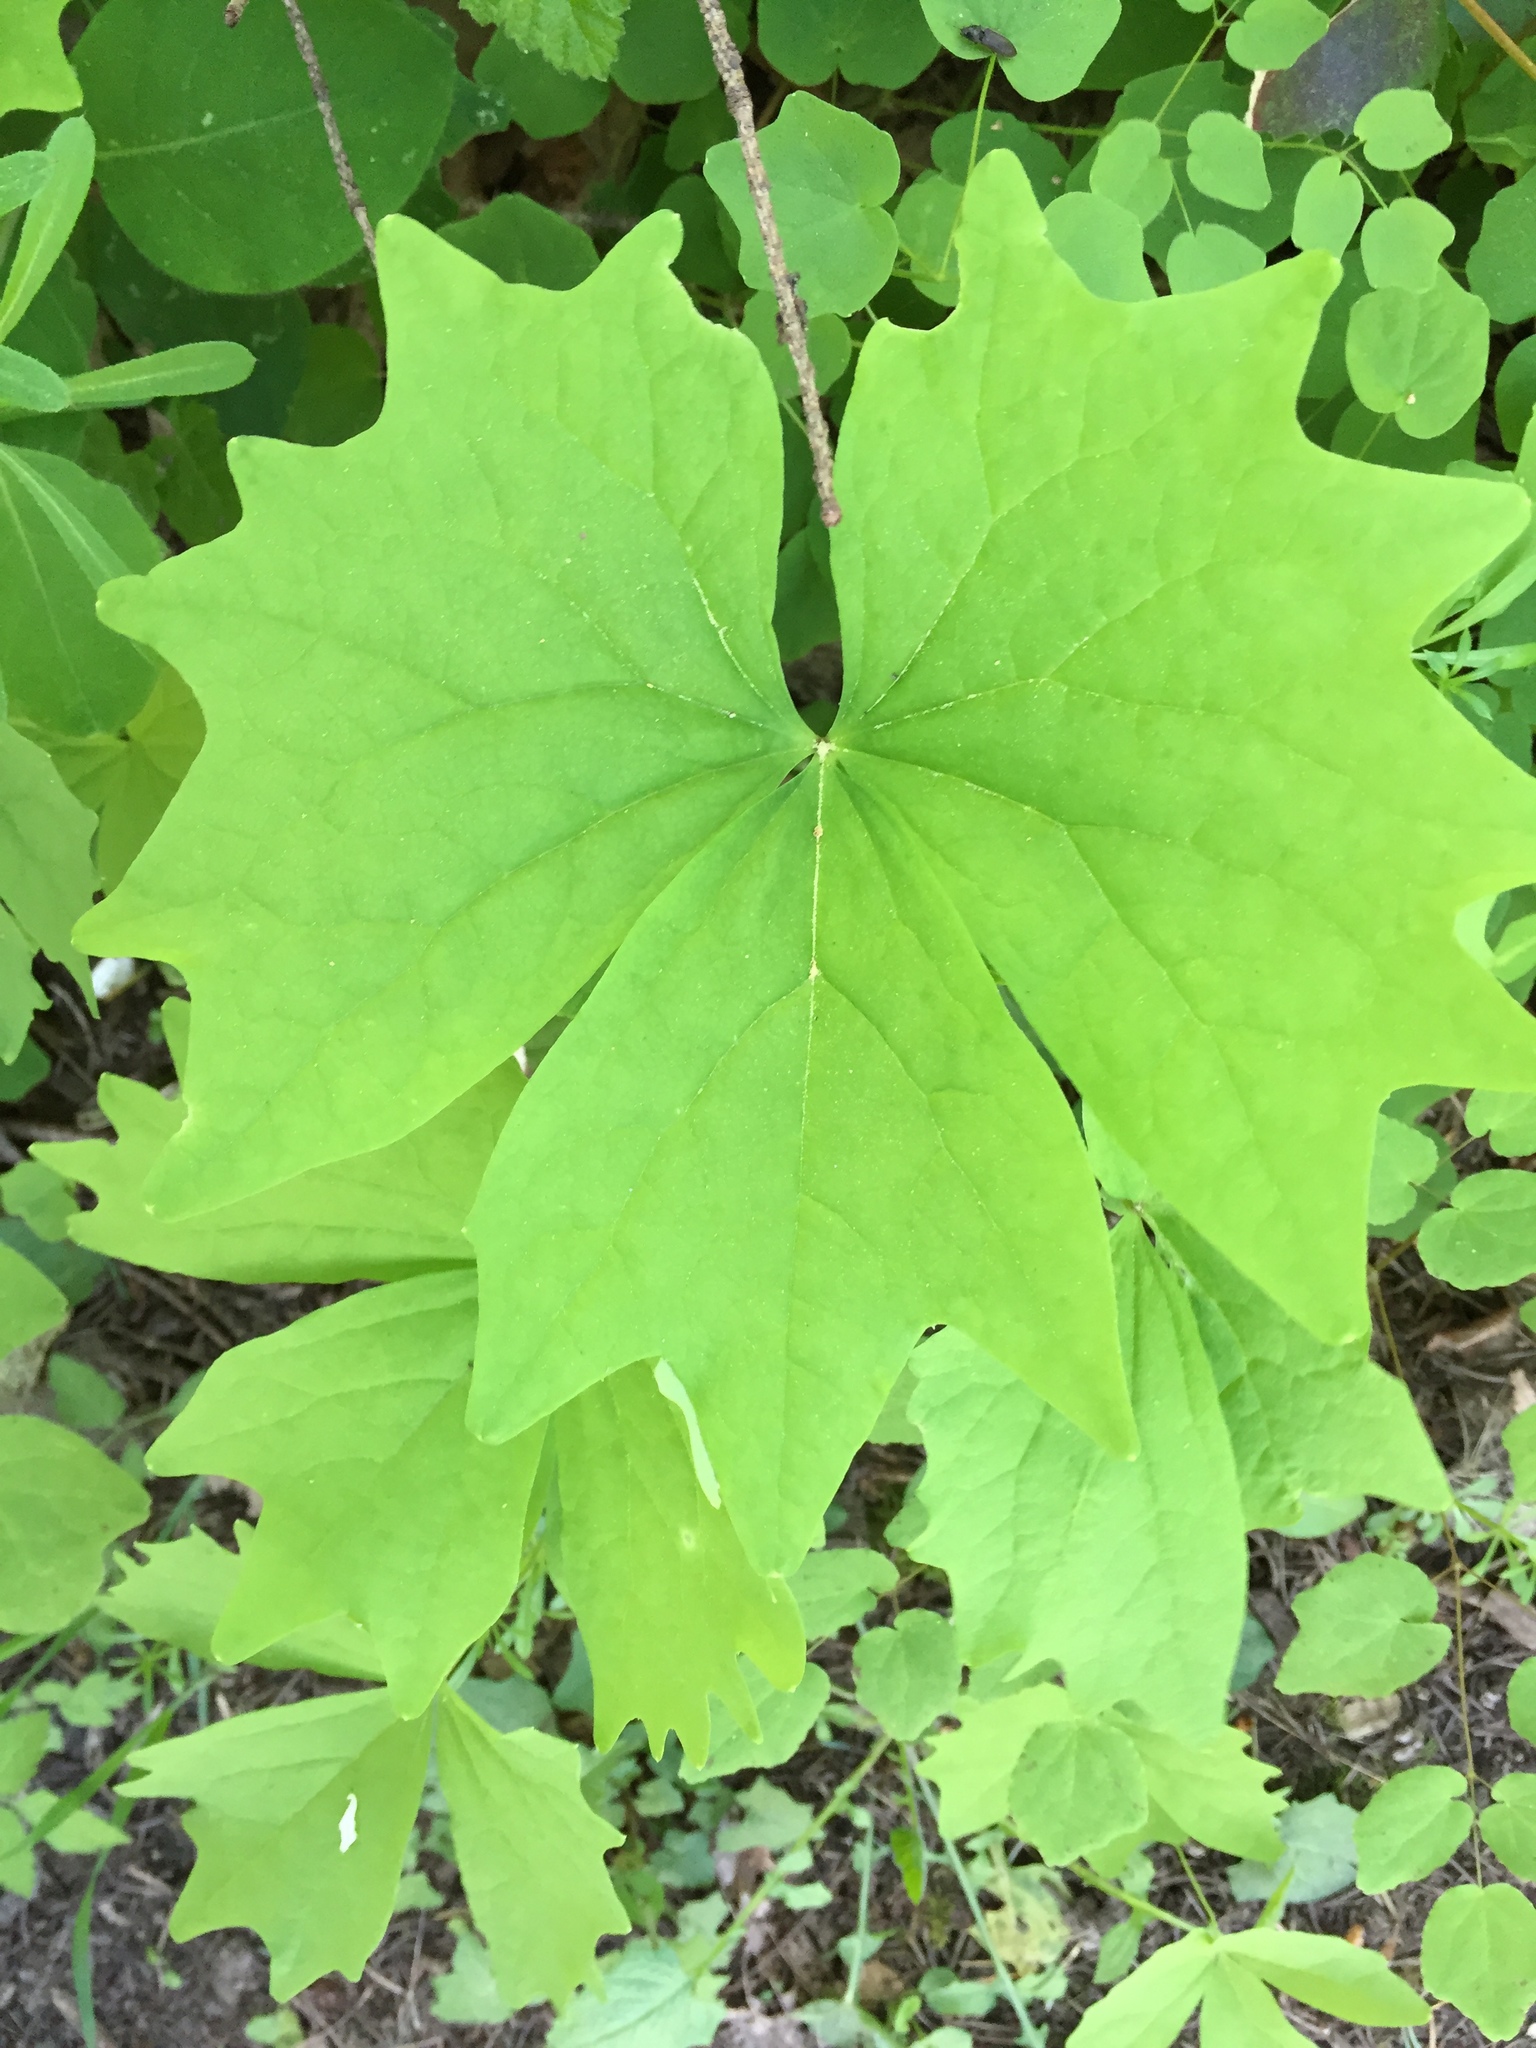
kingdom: Plantae
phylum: Tracheophyta
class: Magnoliopsida
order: Ranunculales
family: Berberidaceae
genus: Achlys
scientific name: Achlys triphylla
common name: Vanilla-leaf
